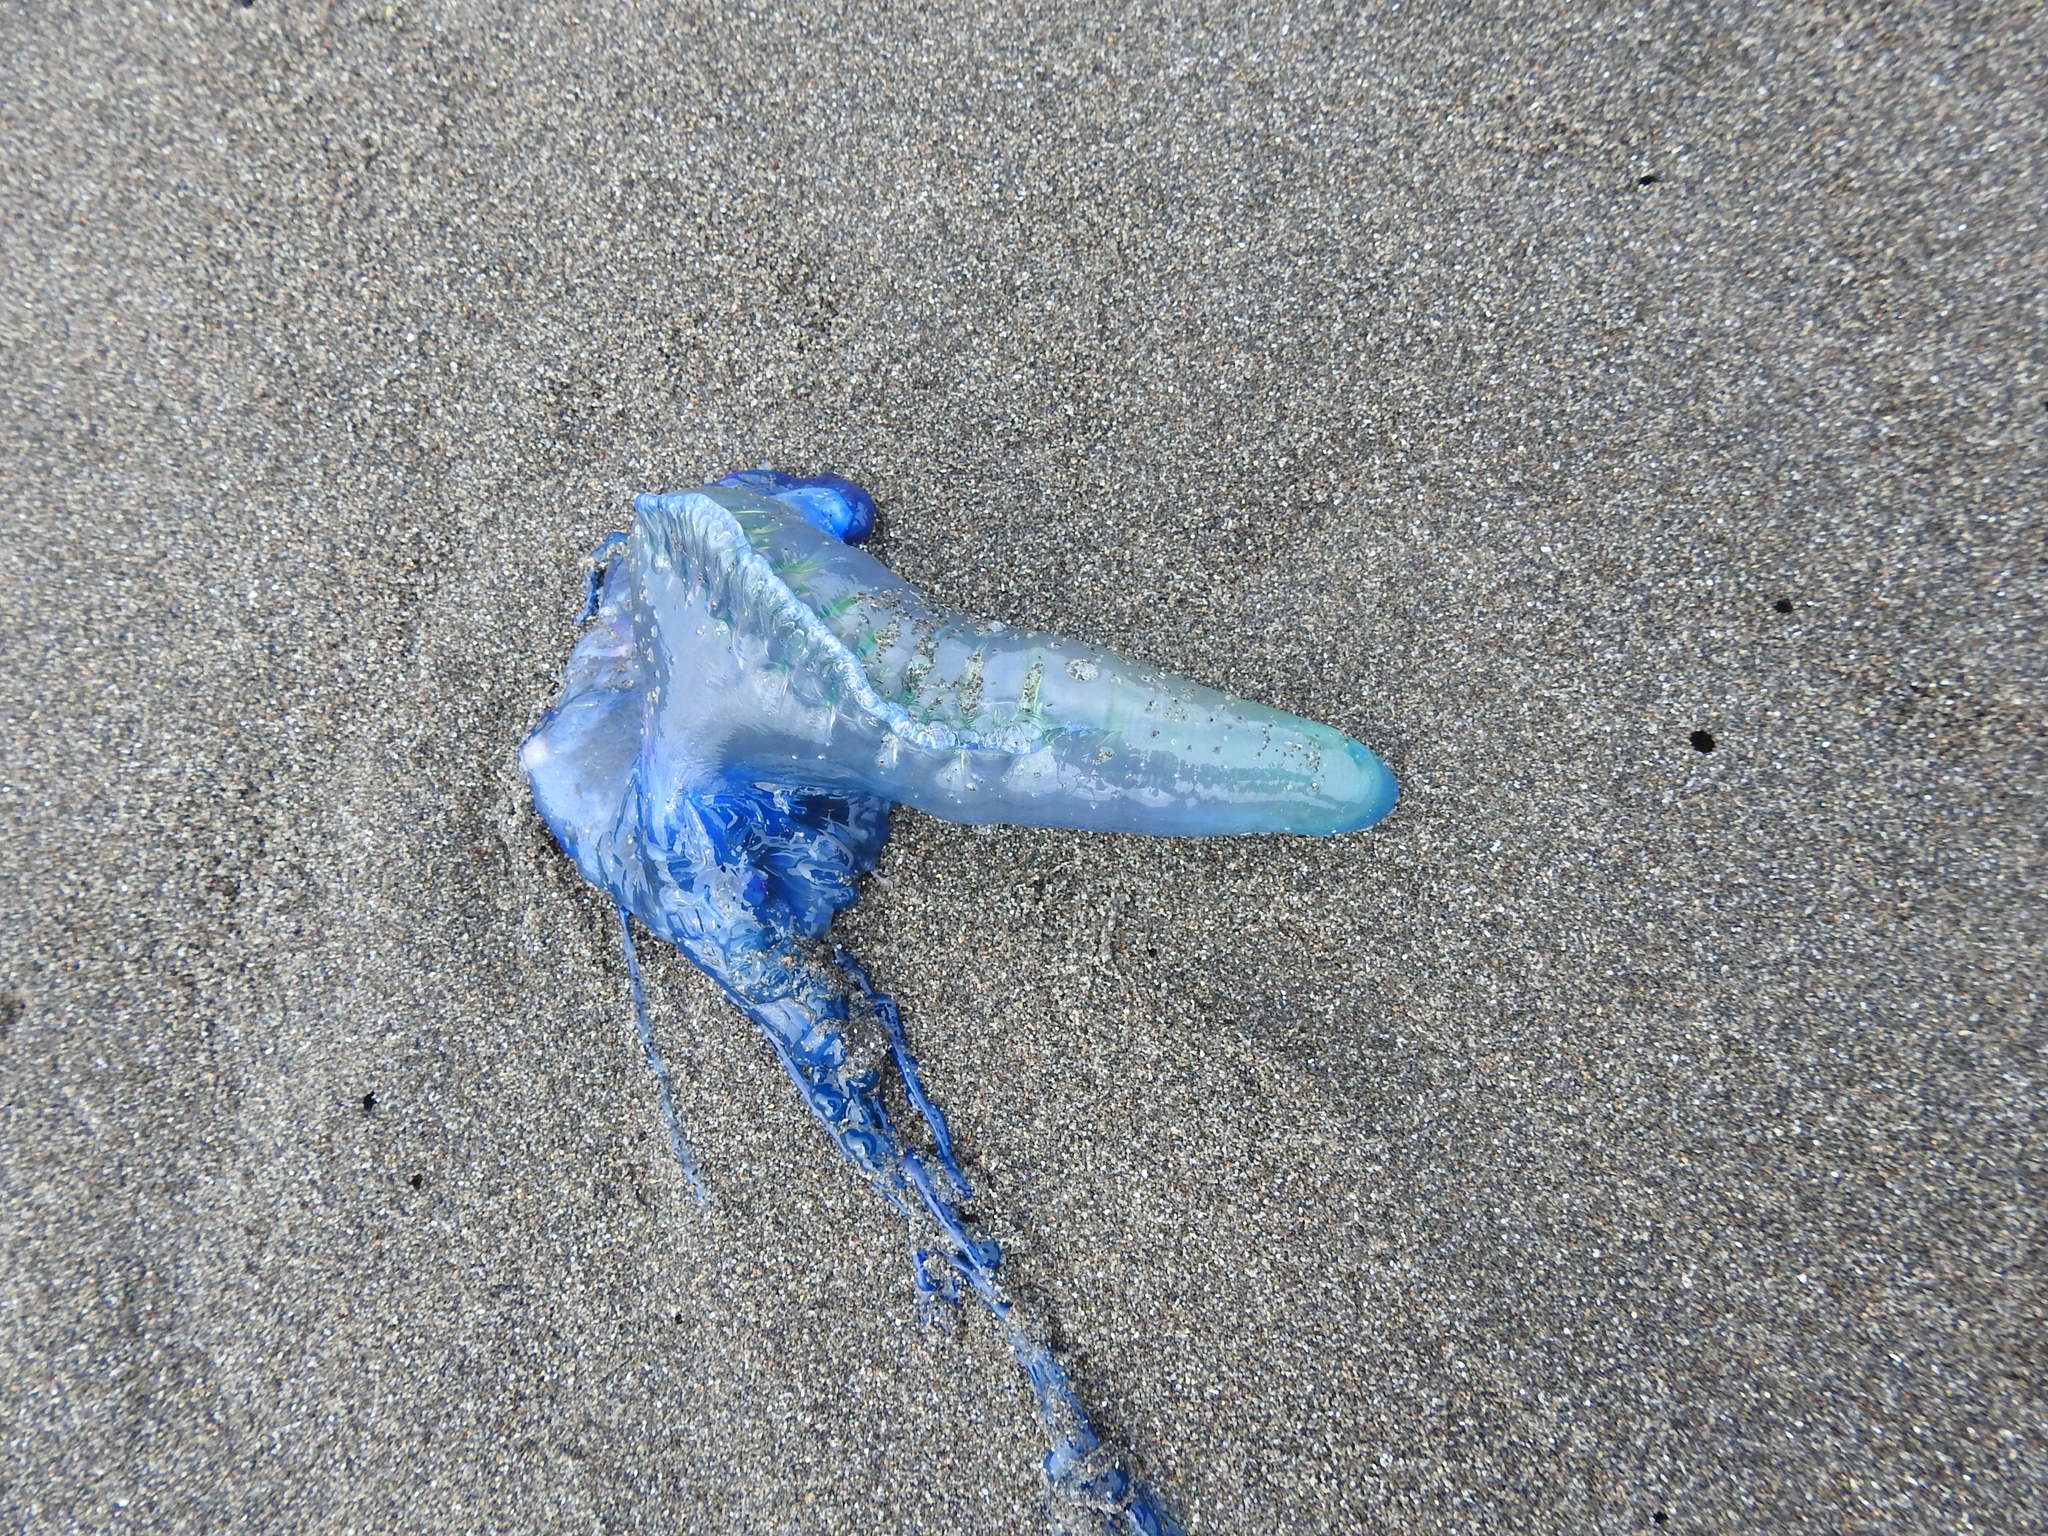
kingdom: Animalia
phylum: Cnidaria
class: Hydrozoa
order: Siphonophorae
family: Physaliidae
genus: Physalia
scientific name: Physalia physalis
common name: Portuguese man-of-war
